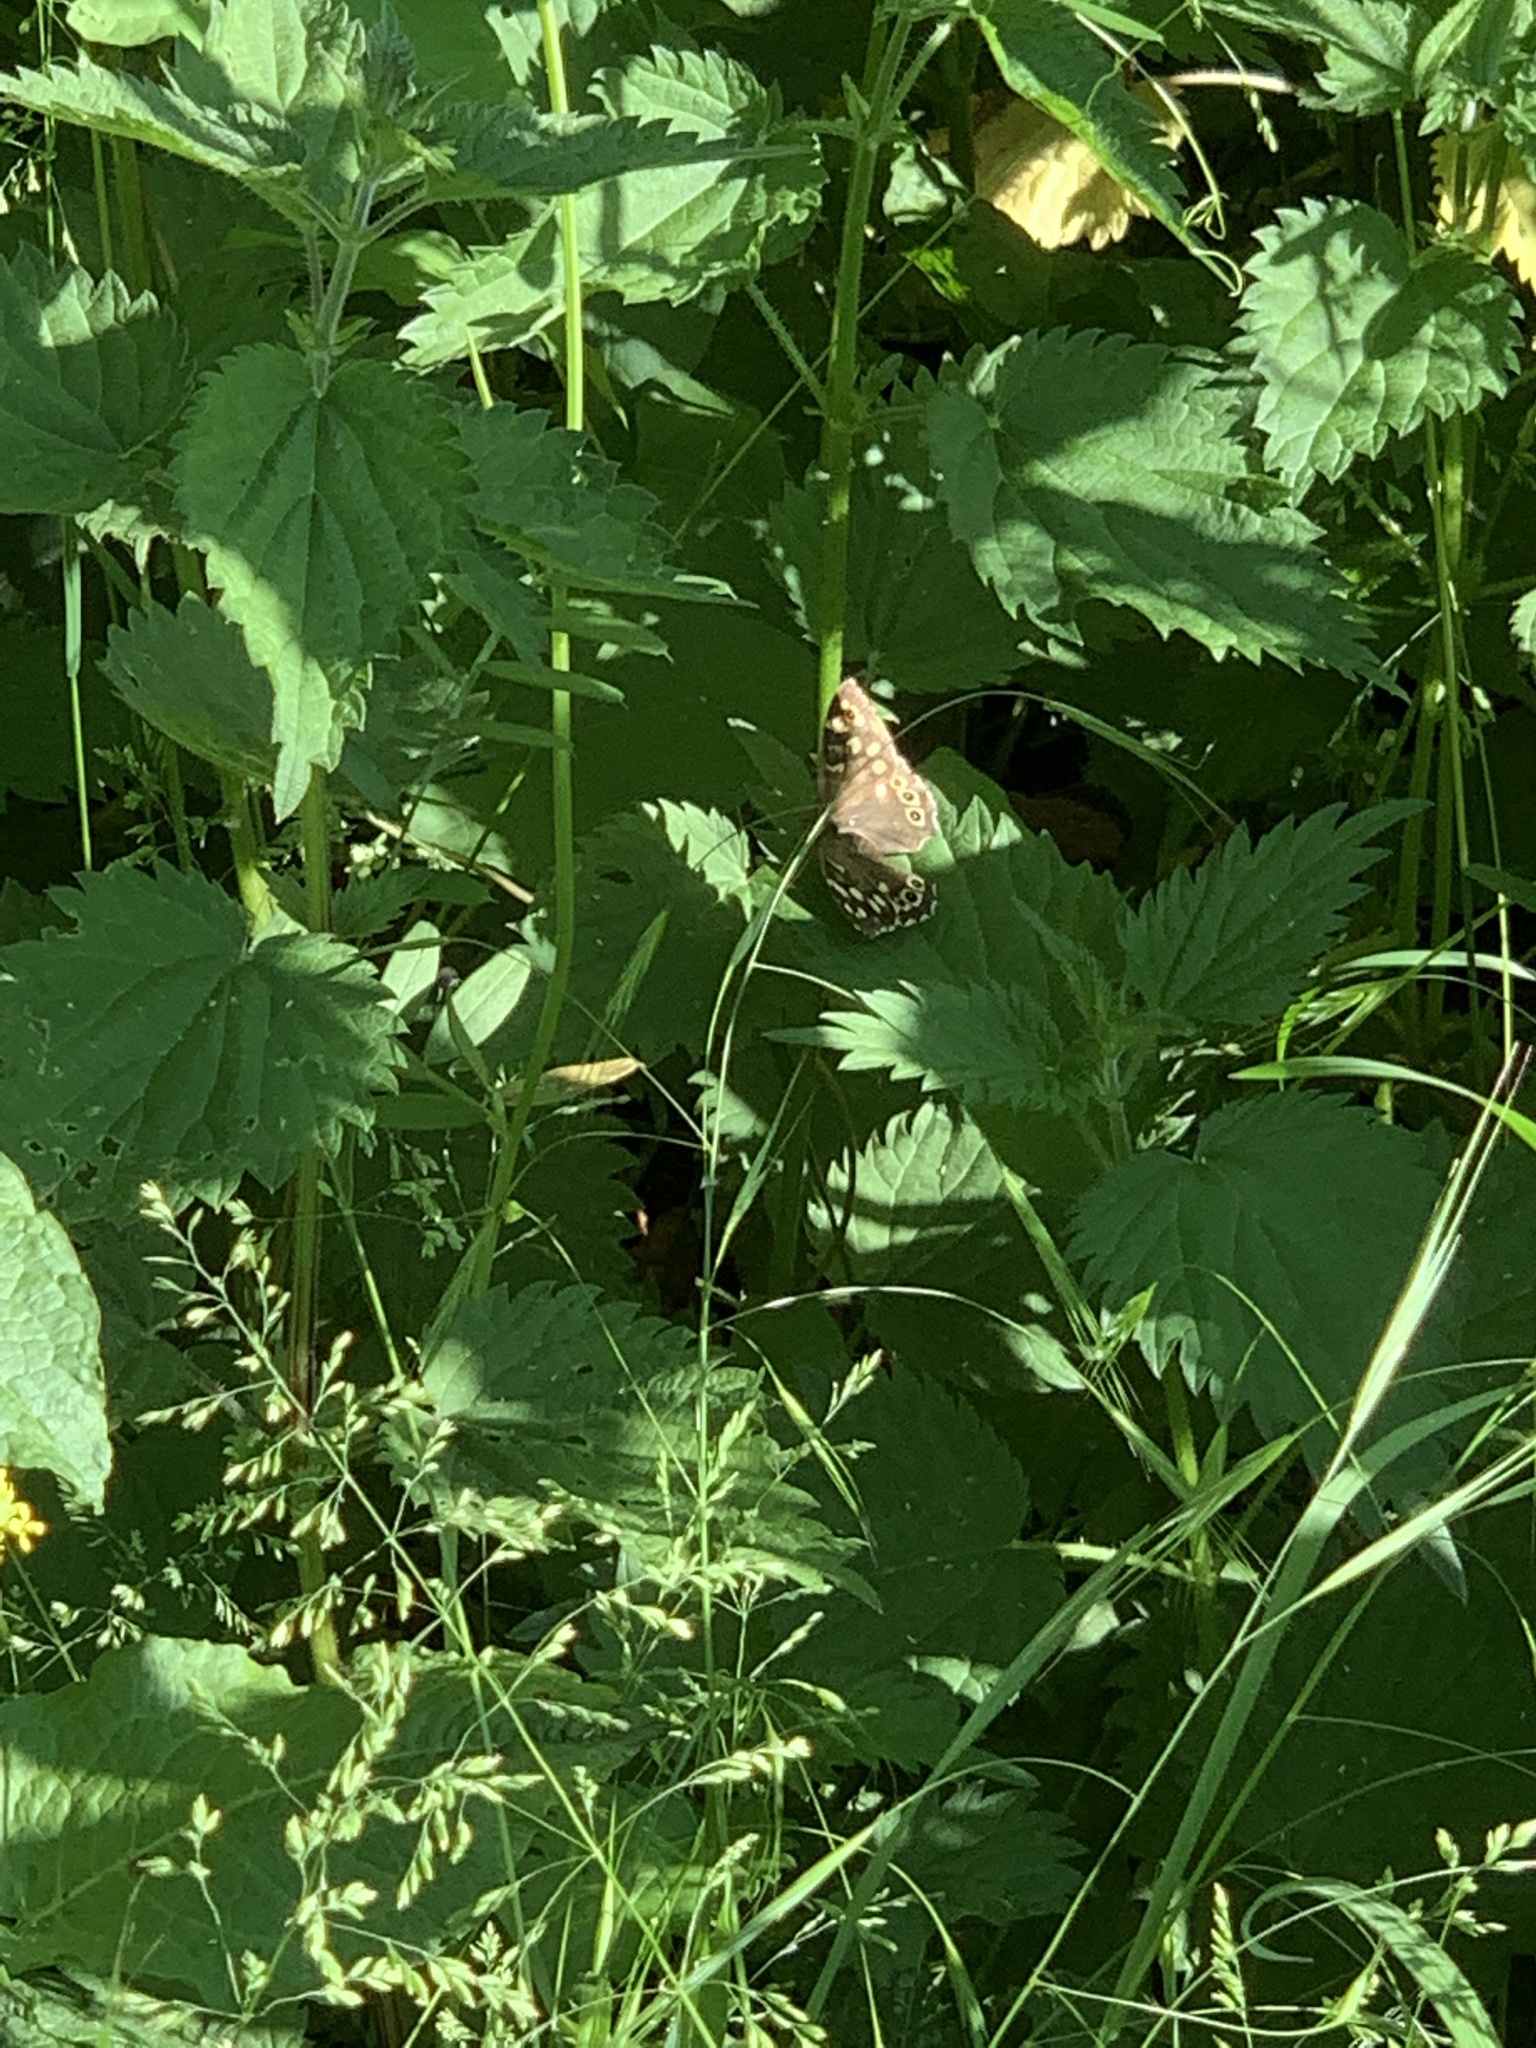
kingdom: Animalia
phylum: Arthropoda
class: Insecta
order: Lepidoptera
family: Nymphalidae
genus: Pararge
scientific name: Pararge aegeria
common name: Speckled wood
